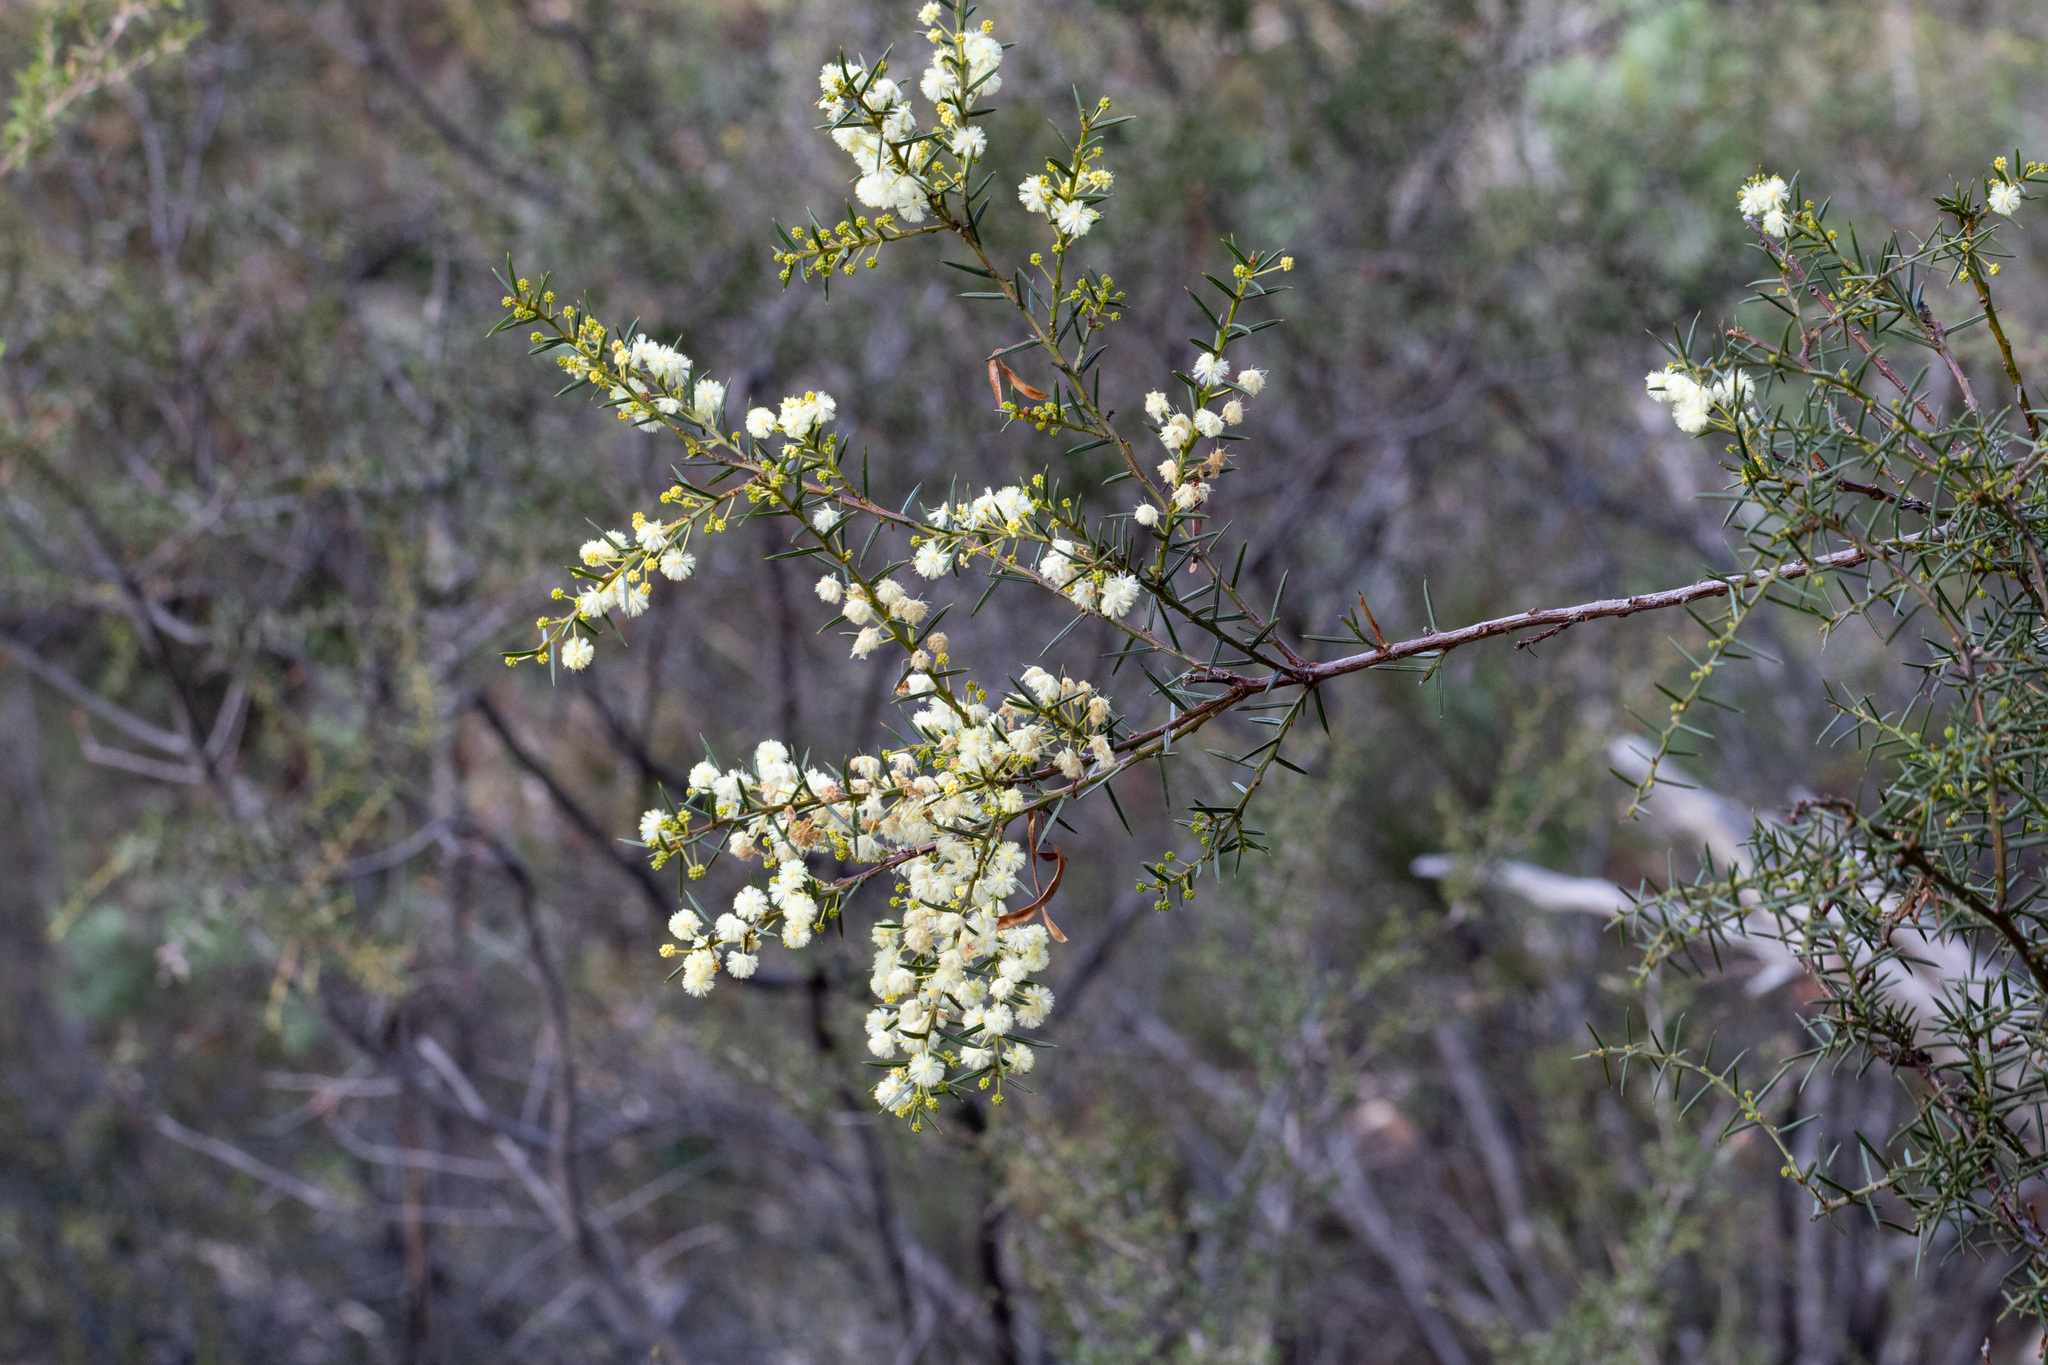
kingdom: Plantae
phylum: Tracheophyta
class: Magnoliopsida
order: Fabales
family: Fabaceae
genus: Acacia
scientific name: Acacia genistifolia
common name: Early wattle
